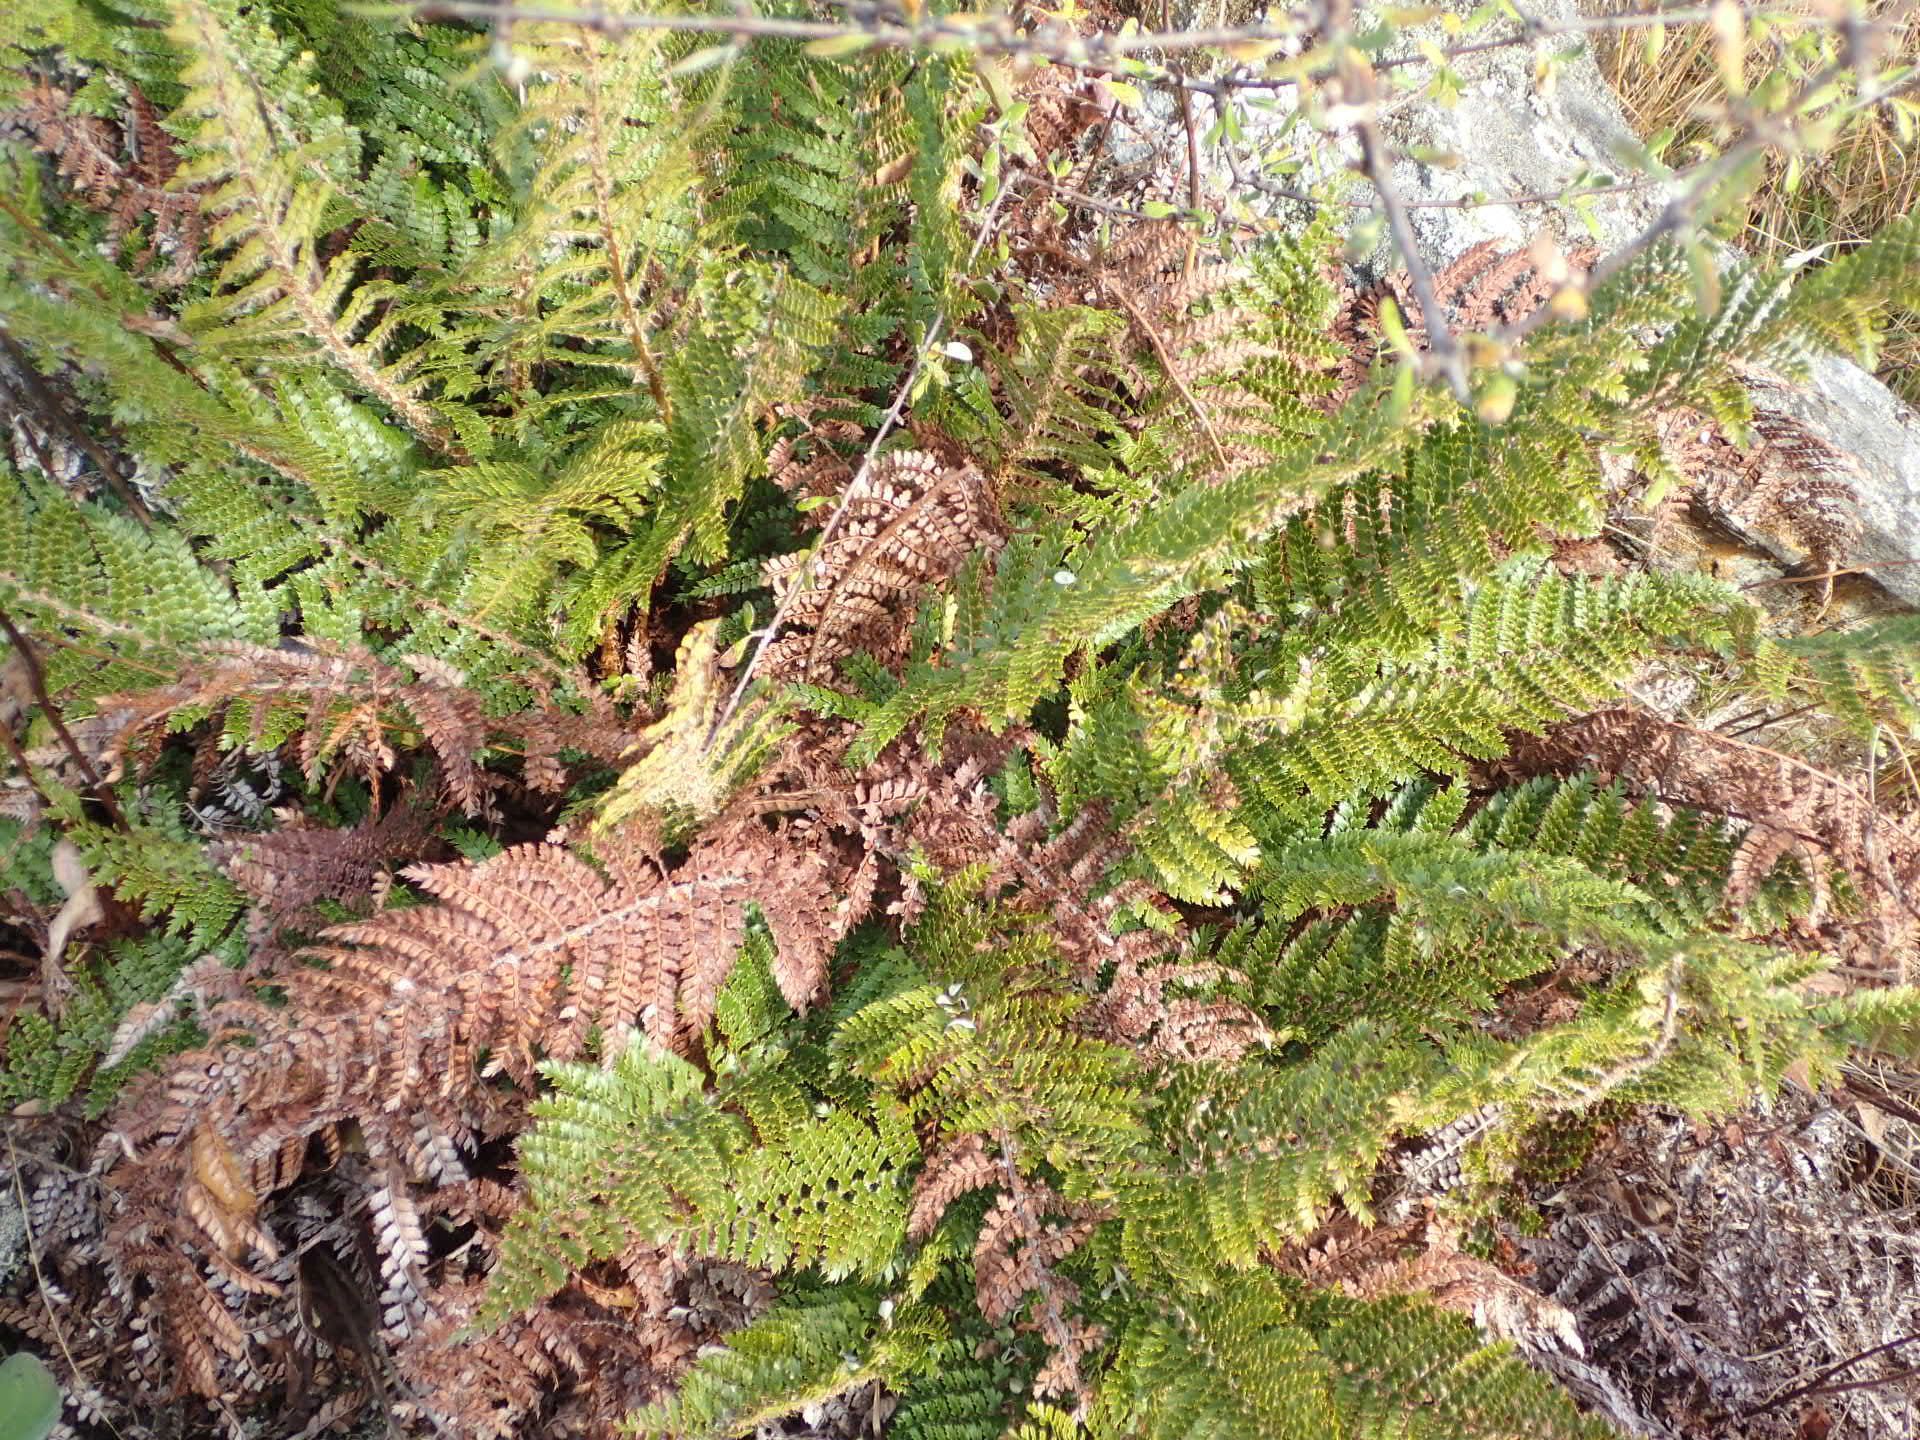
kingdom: Plantae
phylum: Tracheophyta
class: Polypodiopsida
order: Polypodiales
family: Dryopteridaceae
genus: Polystichum
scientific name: Polystichum vestitum
